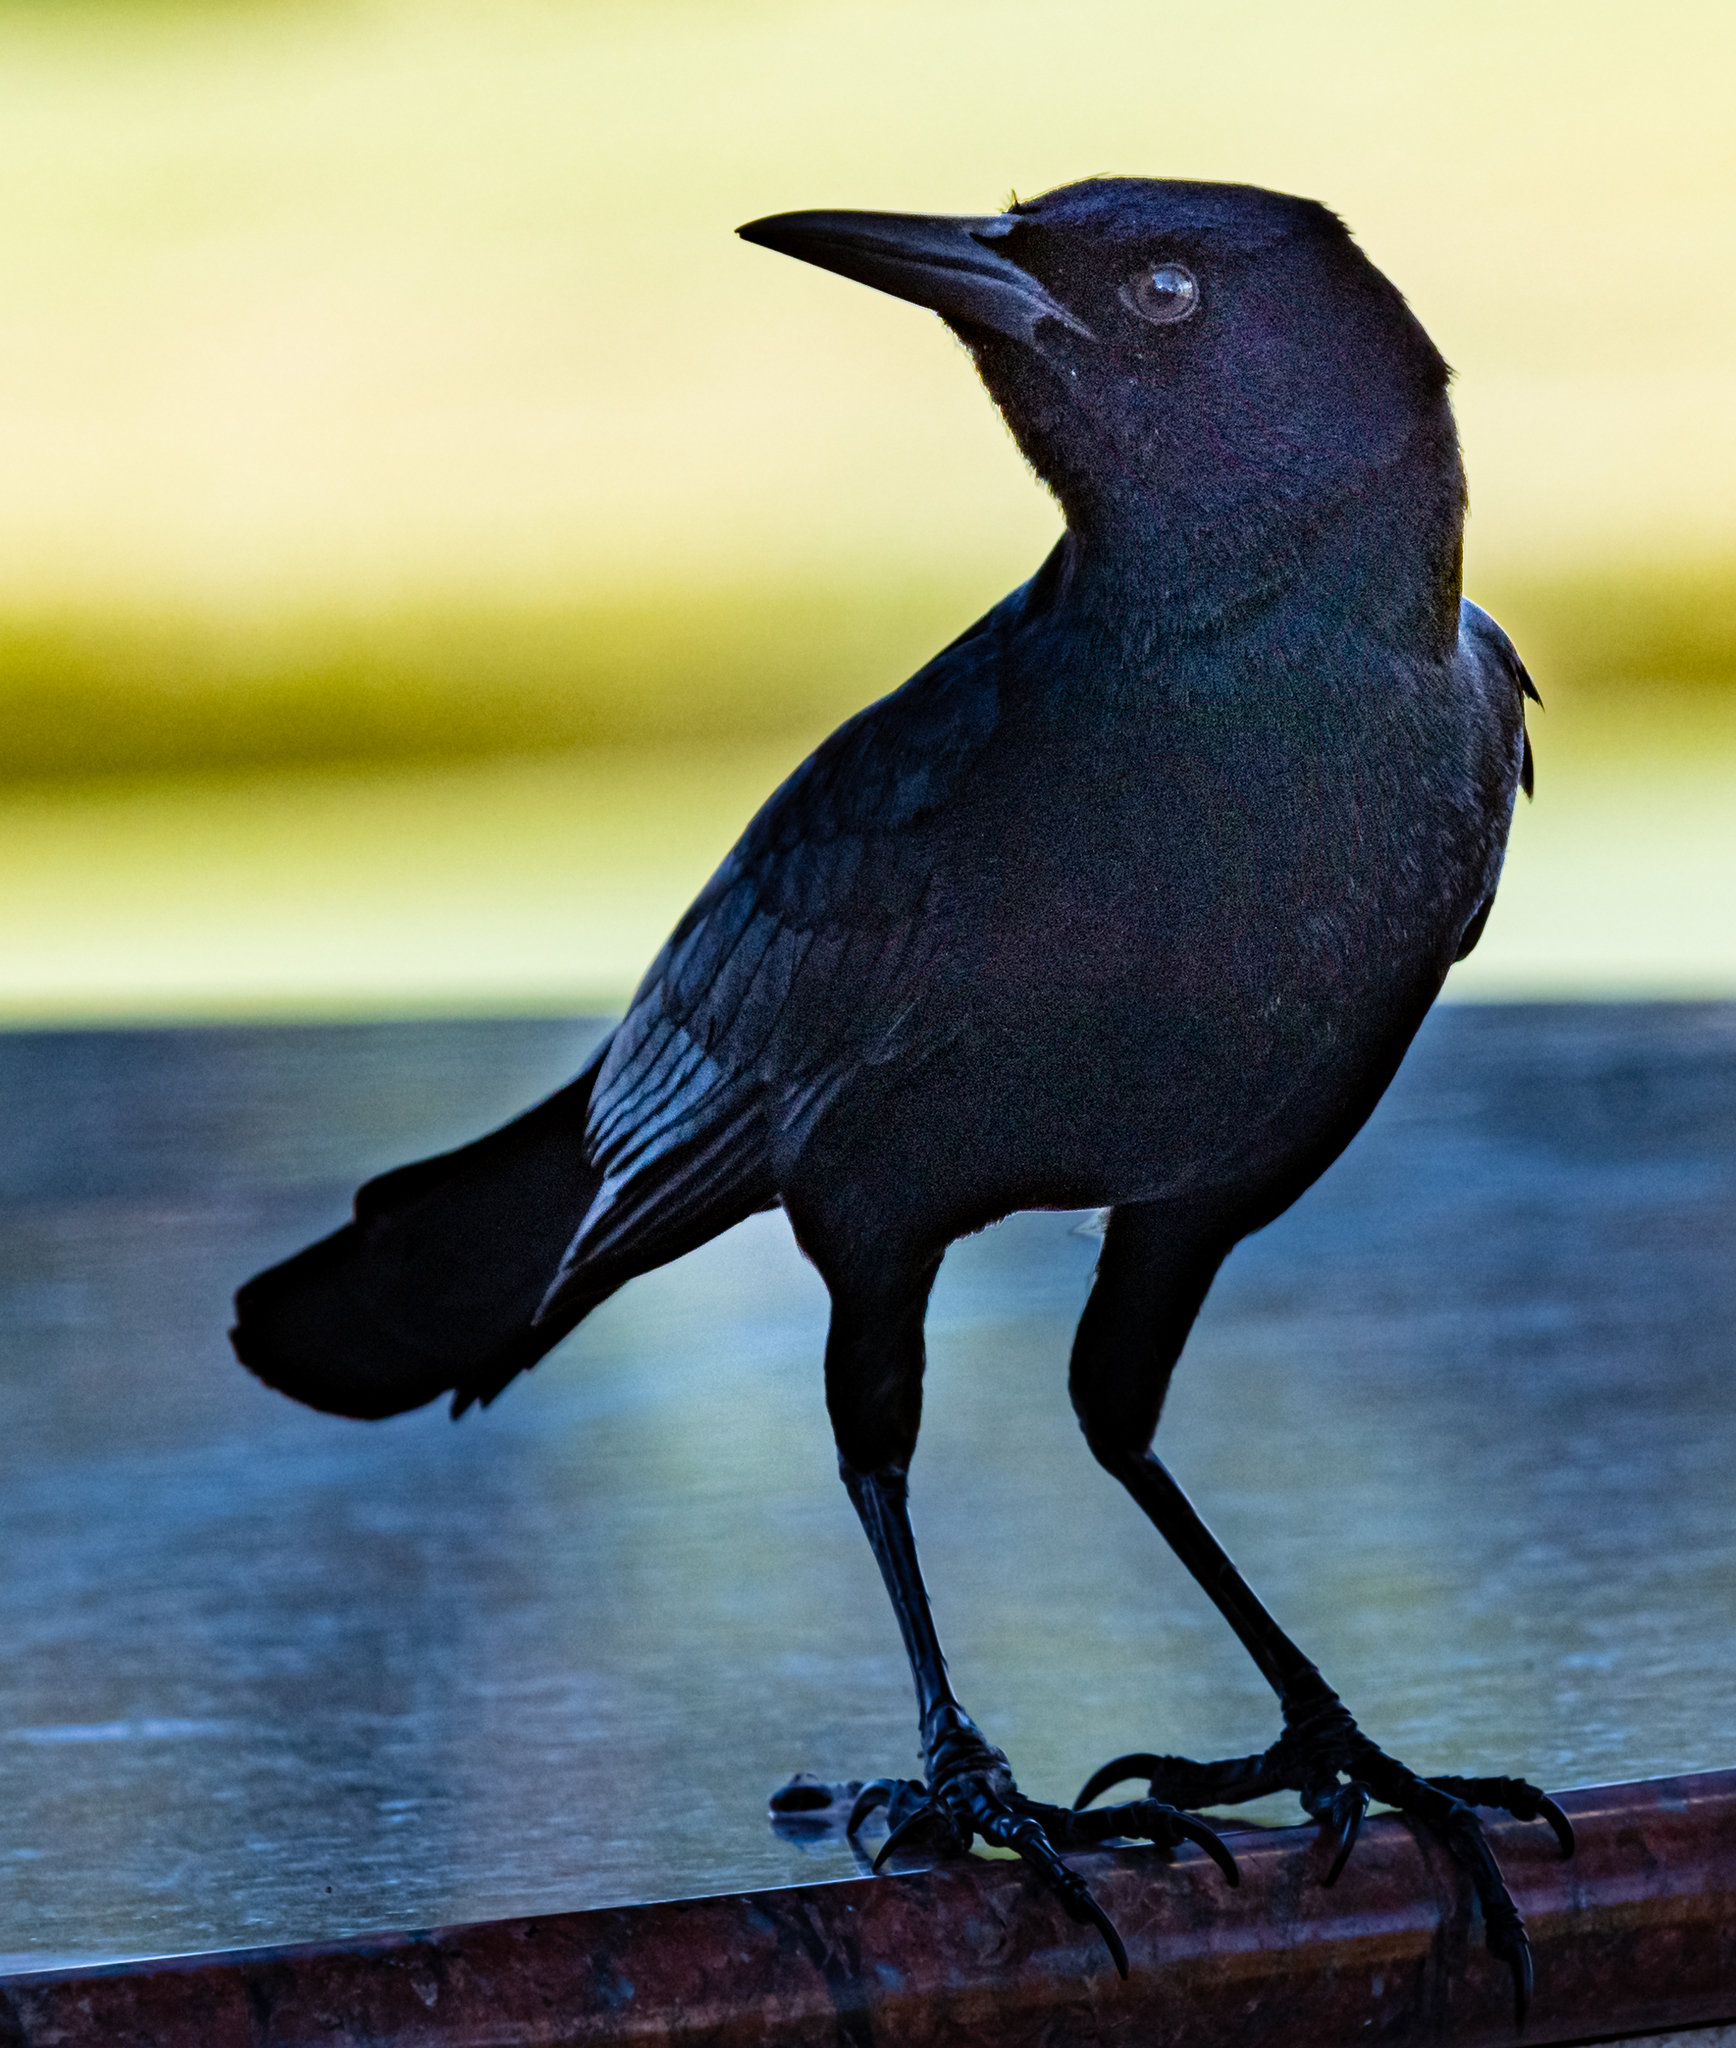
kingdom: Animalia
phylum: Chordata
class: Aves
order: Passeriformes
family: Icteridae
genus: Quiscalus
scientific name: Quiscalus major
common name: Boat-tailed grackle
